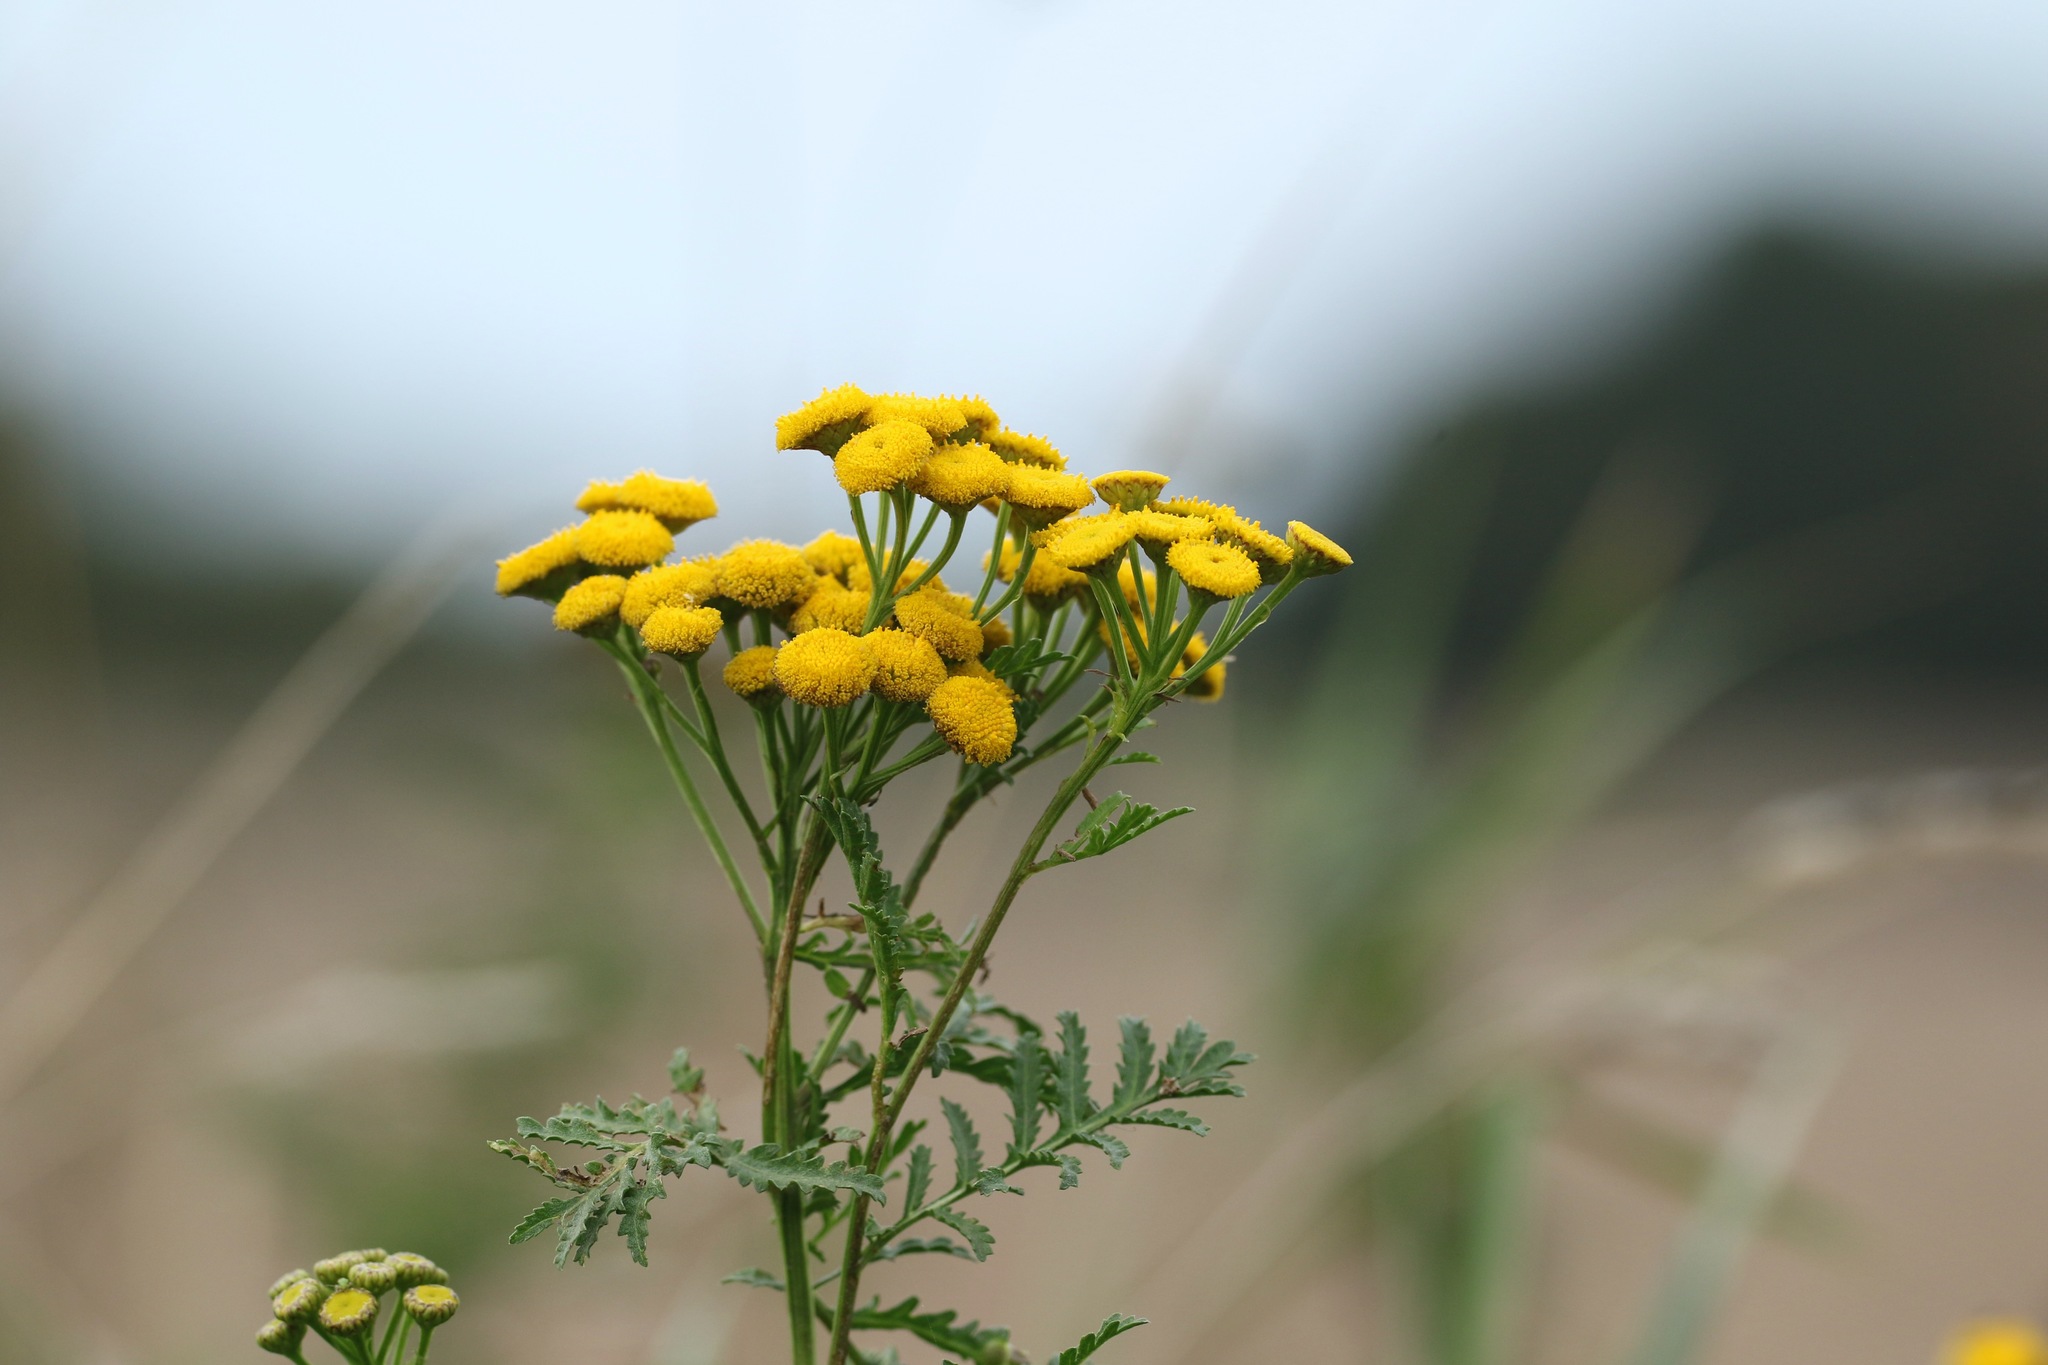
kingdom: Plantae
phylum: Tracheophyta
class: Magnoliopsida
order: Asterales
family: Asteraceae
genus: Tanacetum
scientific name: Tanacetum vulgare
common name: Common tansy
